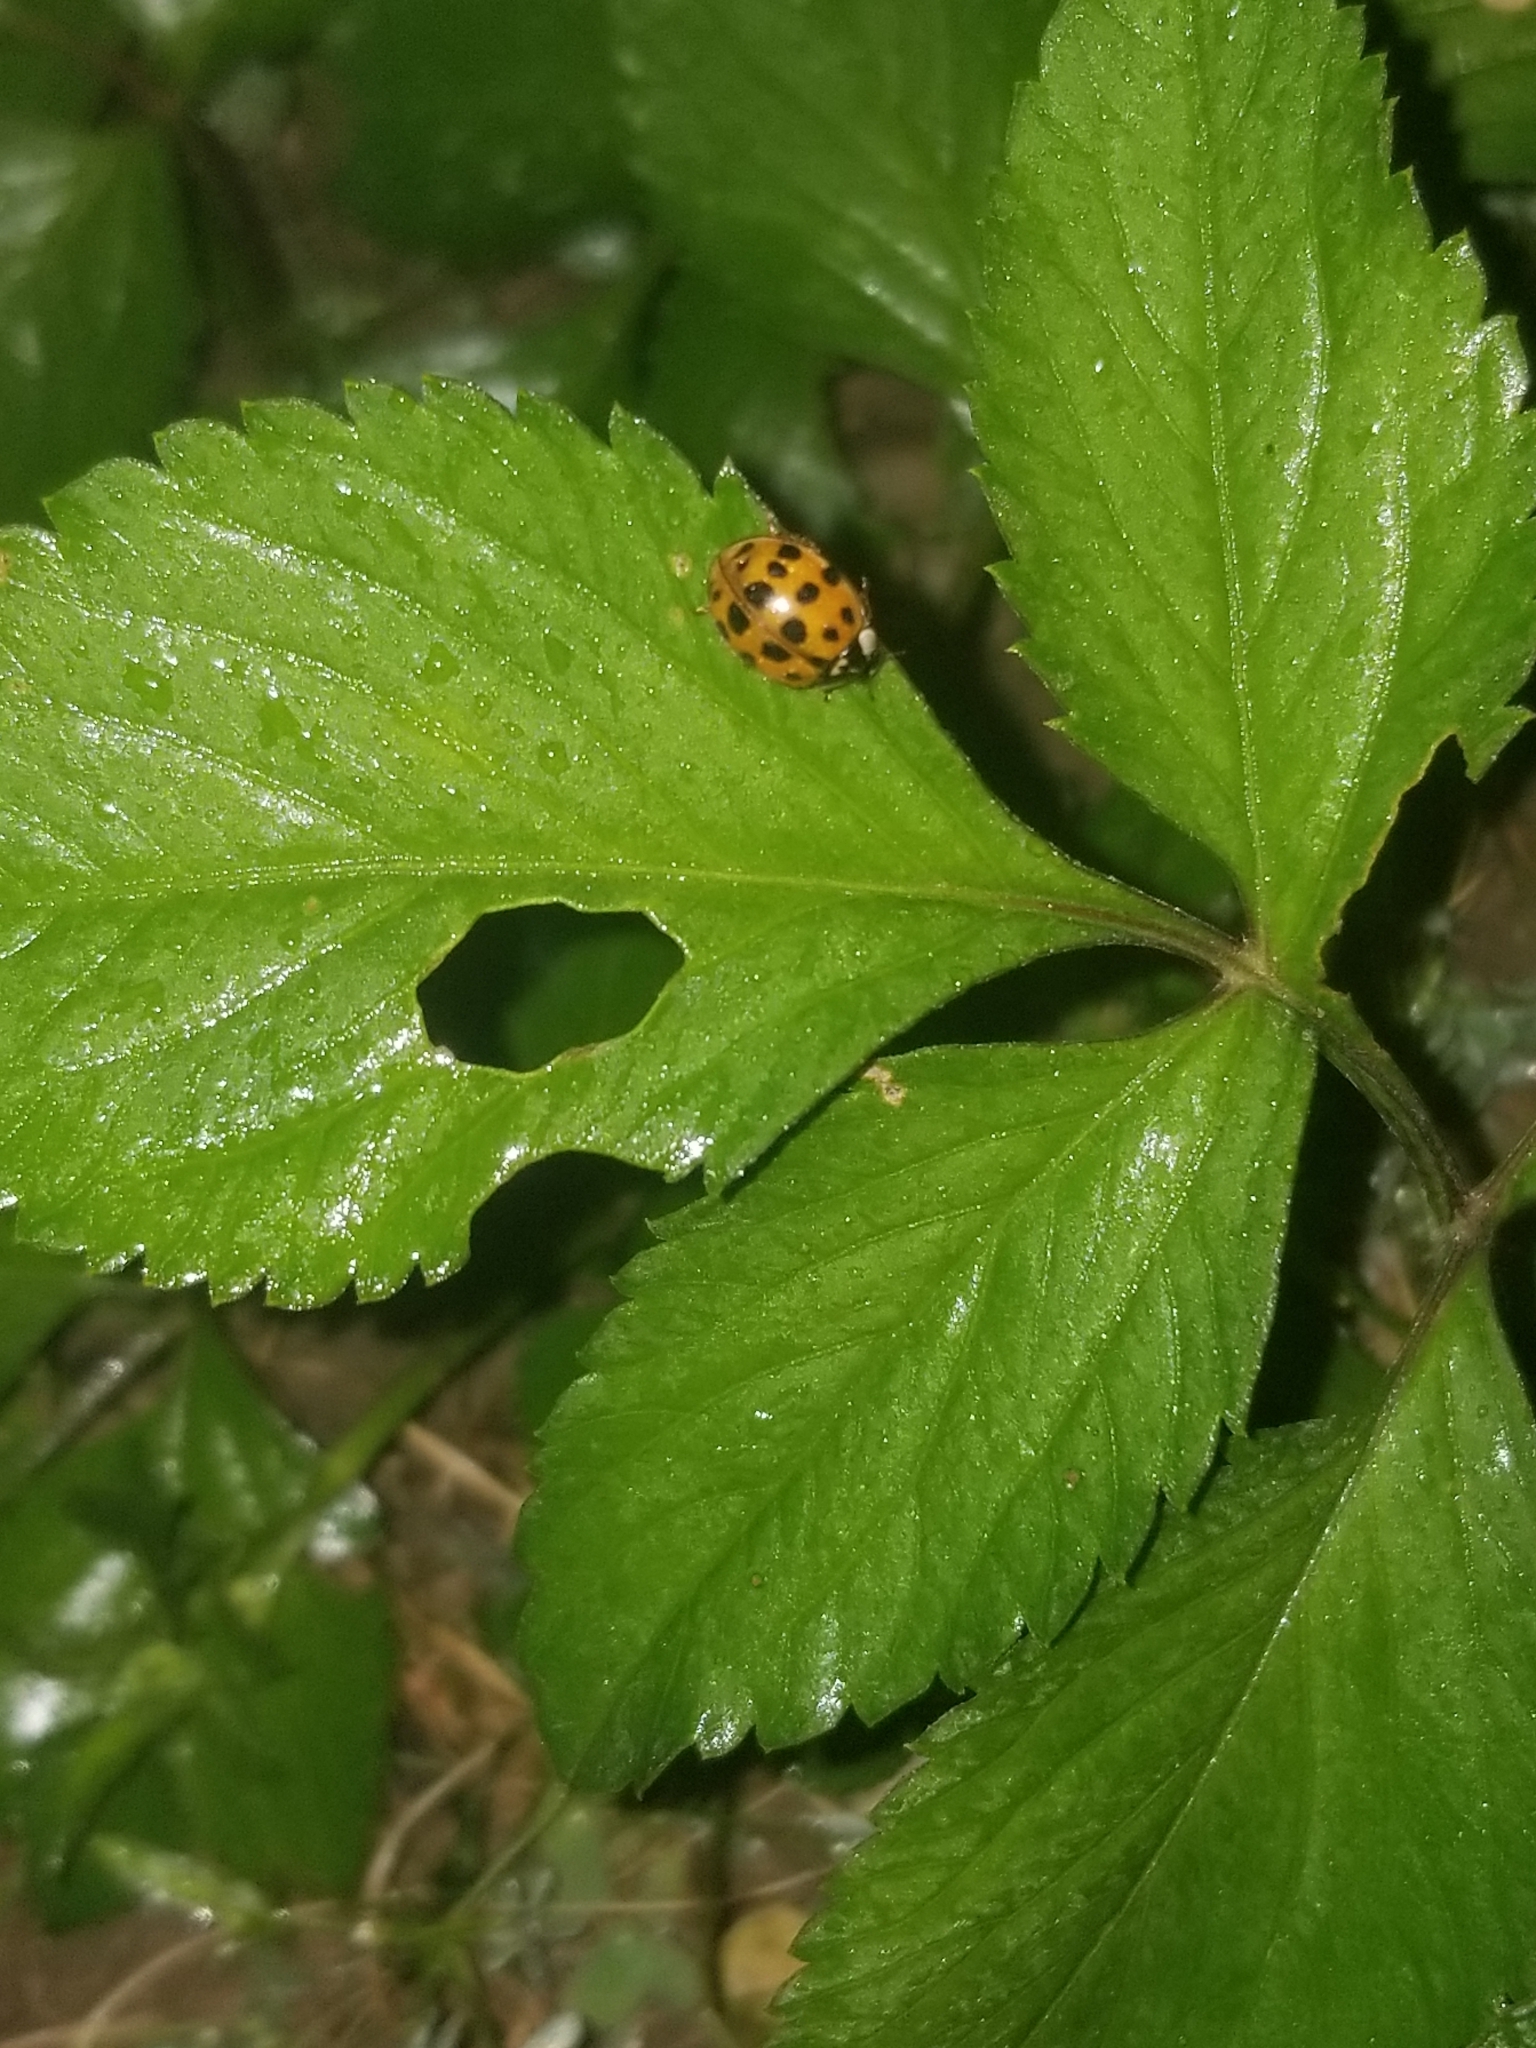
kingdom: Animalia
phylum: Arthropoda
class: Insecta
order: Coleoptera
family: Coccinellidae
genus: Harmonia
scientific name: Harmonia axyridis
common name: Harlequin ladybird
